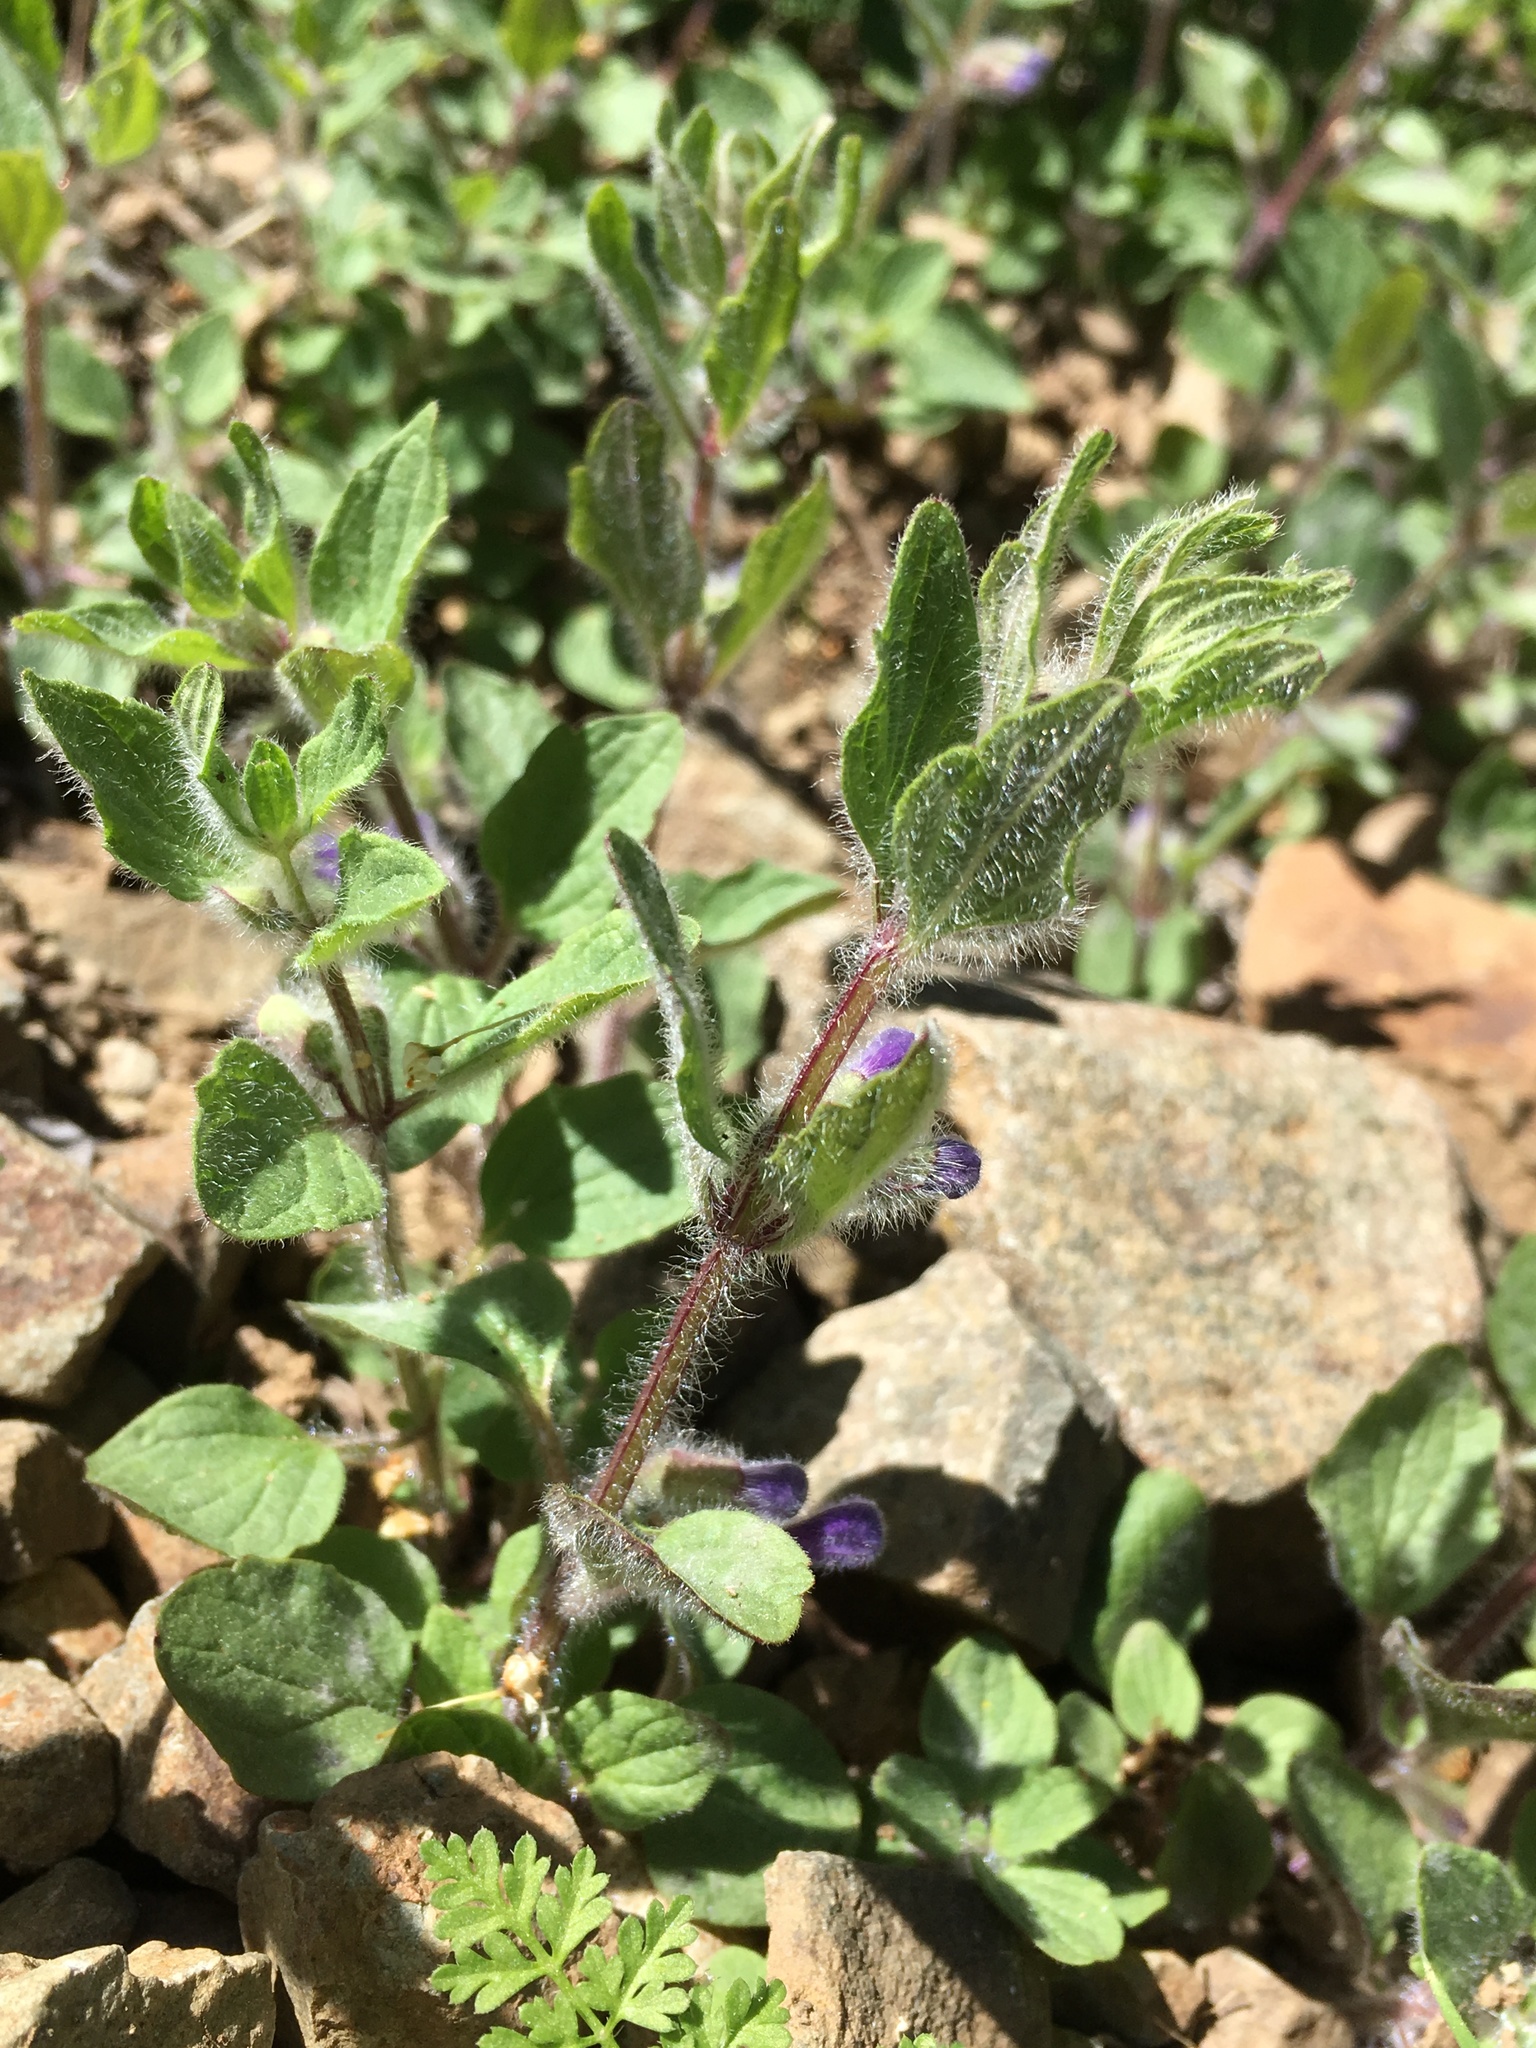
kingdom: Plantae
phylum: Tracheophyta
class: Magnoliopsida
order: Lamiales
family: Lamiaceae
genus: Scutellaria
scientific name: Scutellaria tuberosa
